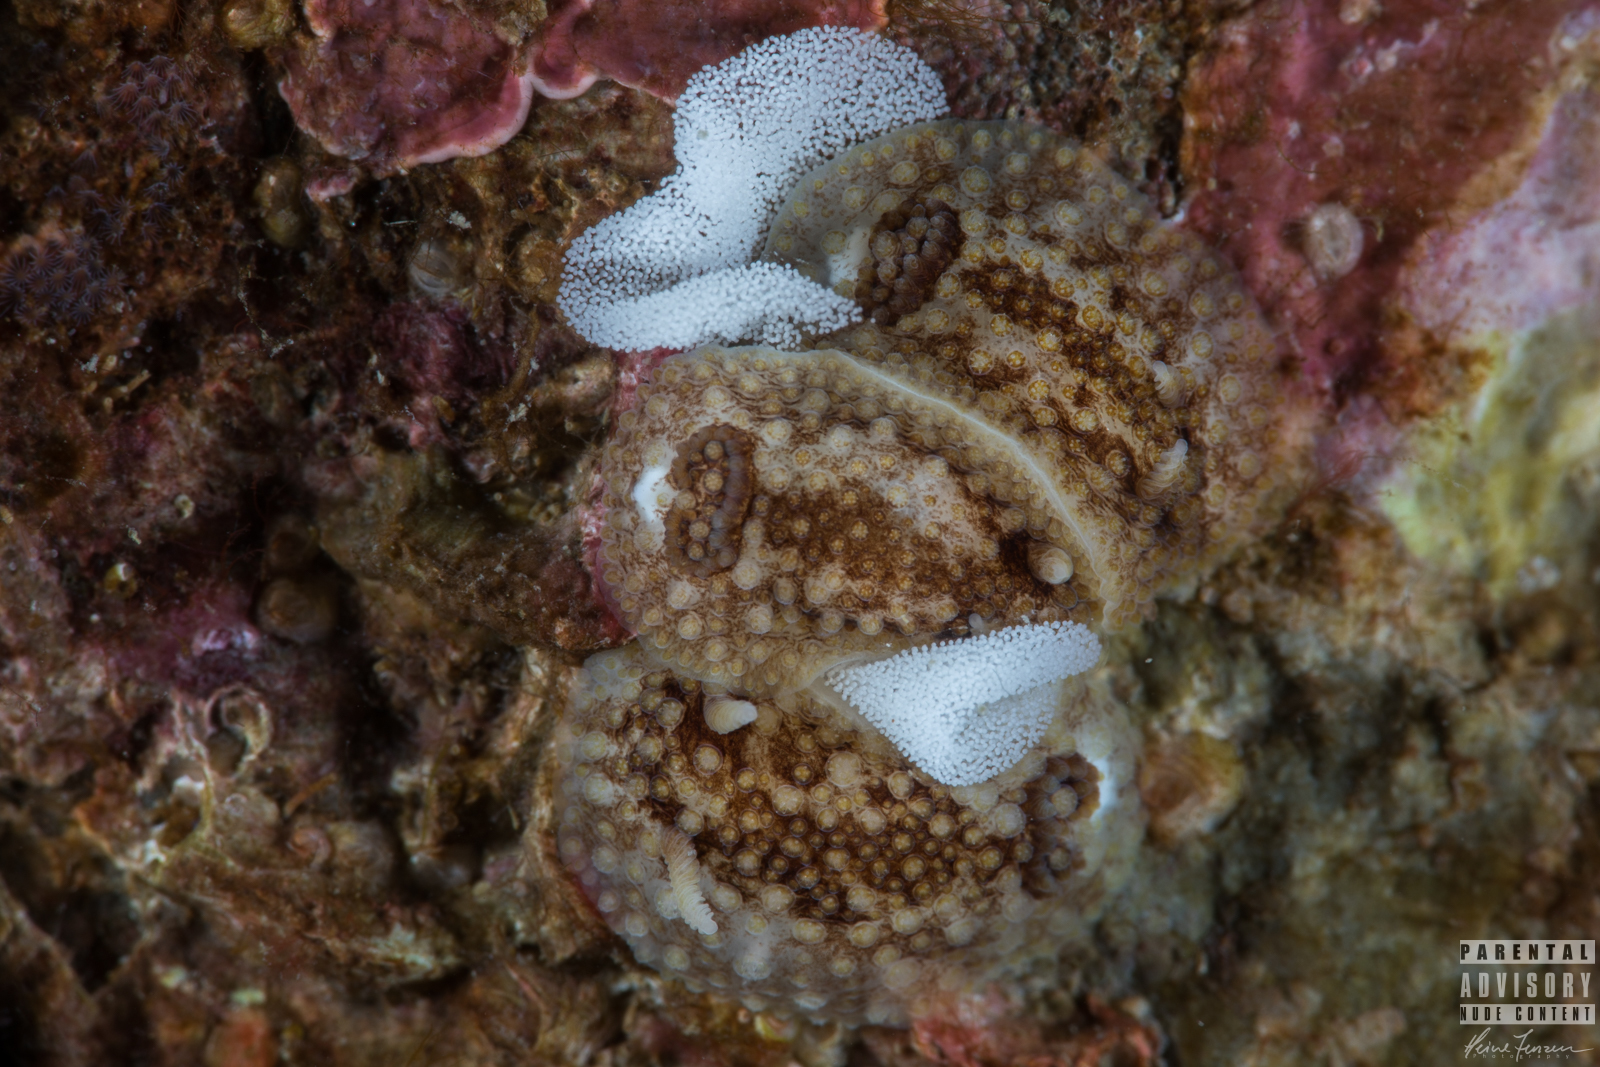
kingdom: Animalia
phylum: Mollusca
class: Gastropoda
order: Nudibranchia
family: Onchidorididae
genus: Onchidoris
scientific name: Onchidoris bilamellata
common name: Barnacle-eating onchidoris
